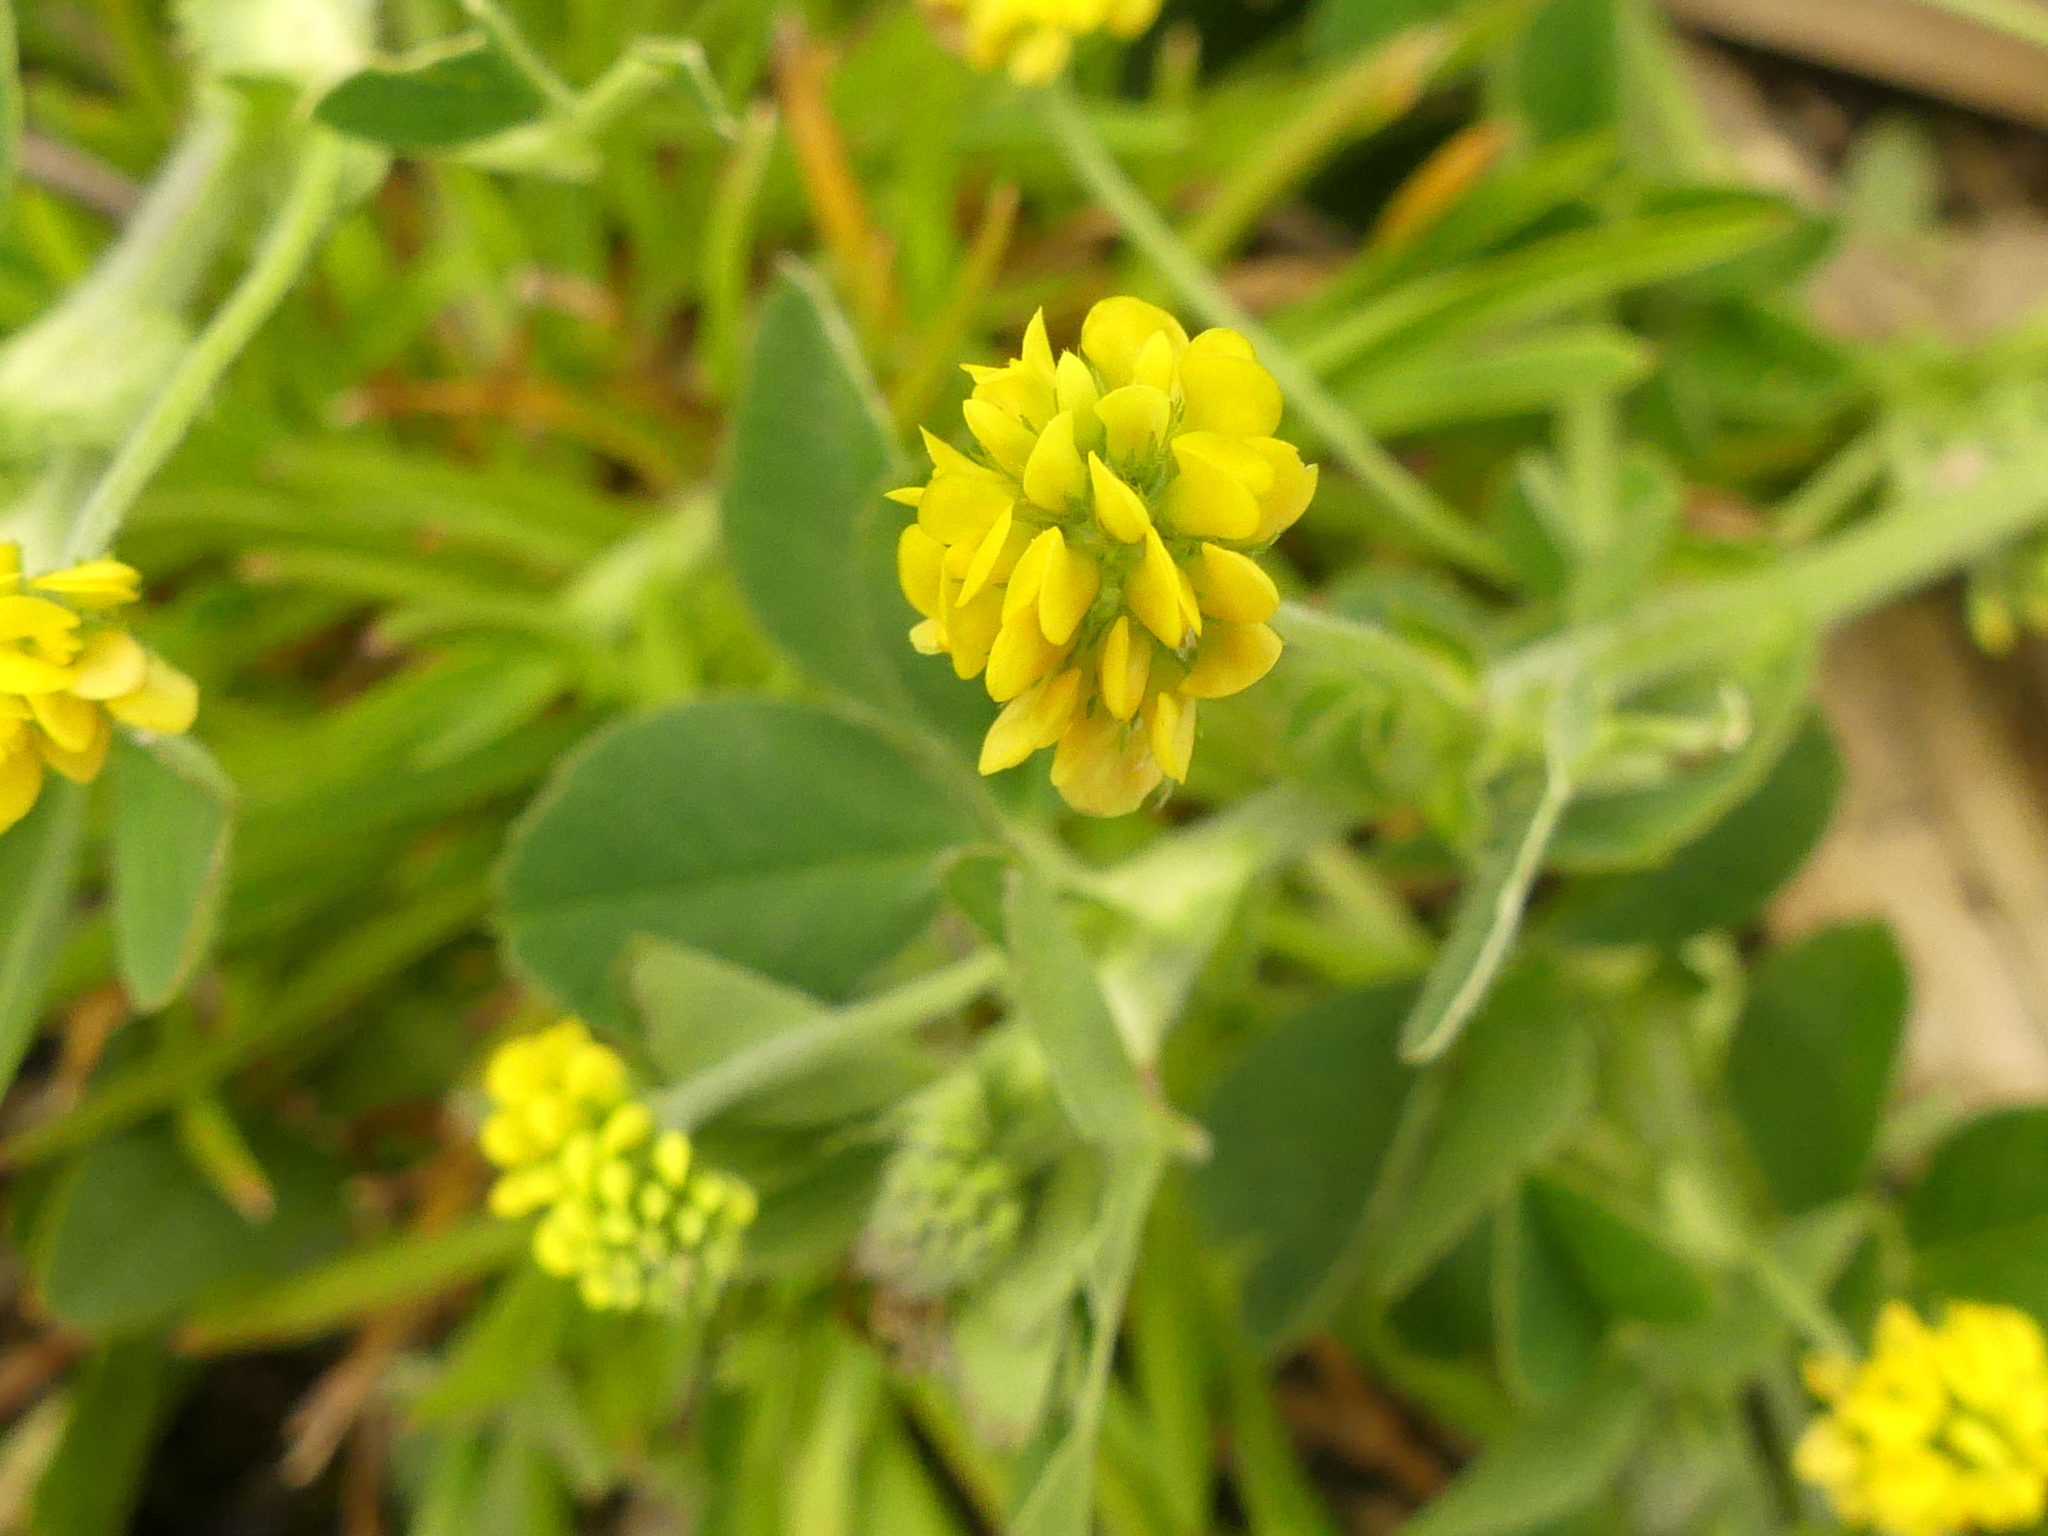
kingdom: Plantae
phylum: Tracheophyta
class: Magnoliopsida
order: Fabales
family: Fabaceae
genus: Medicago
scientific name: Medicago lupulina
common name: Black medick
